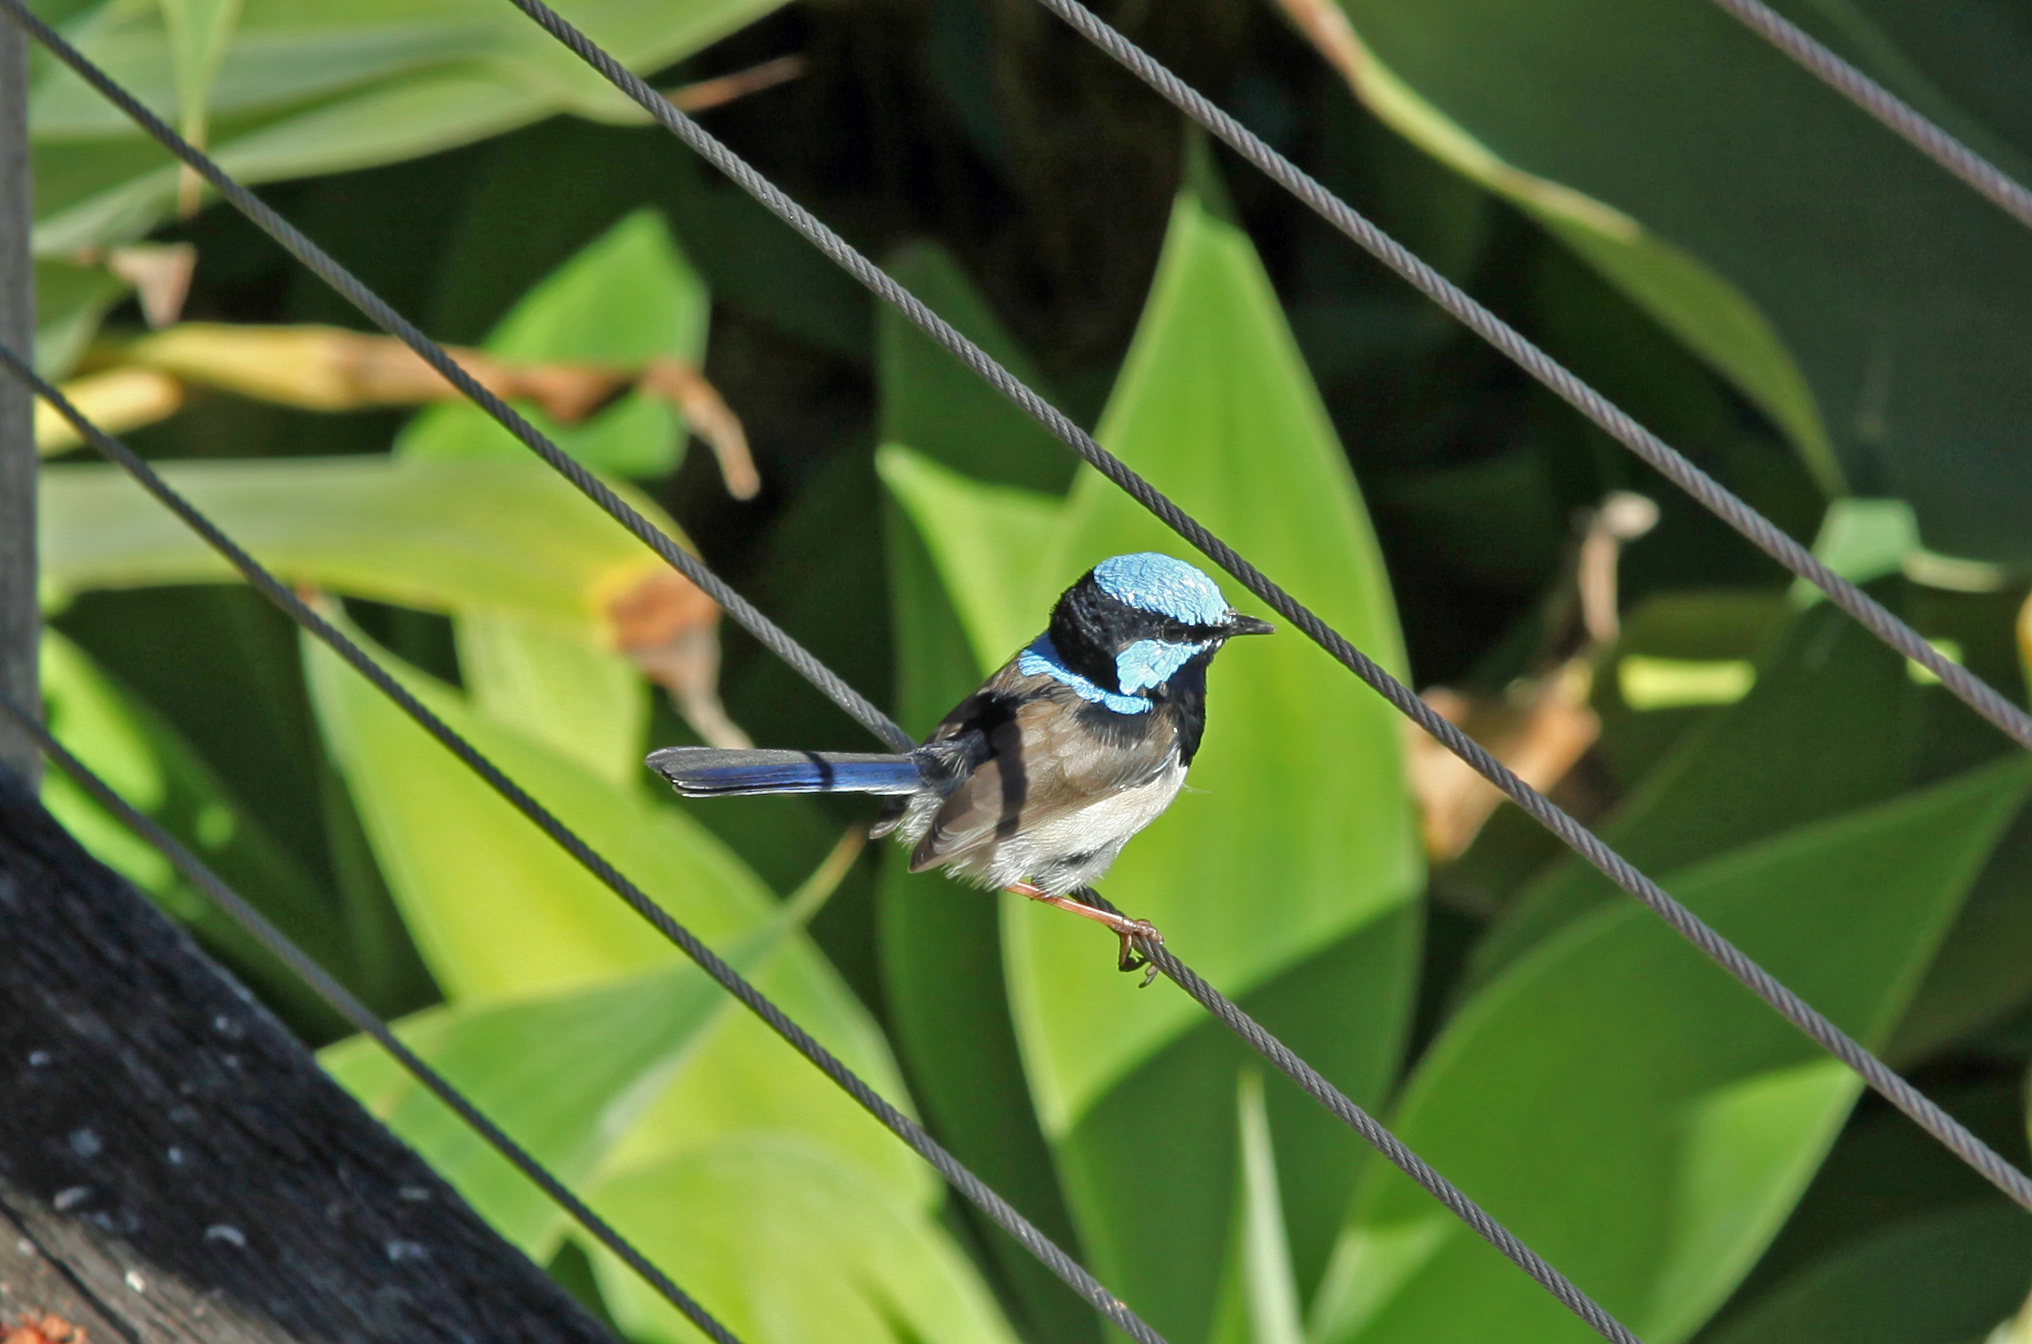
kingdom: Animalia
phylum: Chordata
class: Aves
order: Passeriformes
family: Maluridae
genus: Malurus
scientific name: Malurus cyaneus
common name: Superb fairywren
